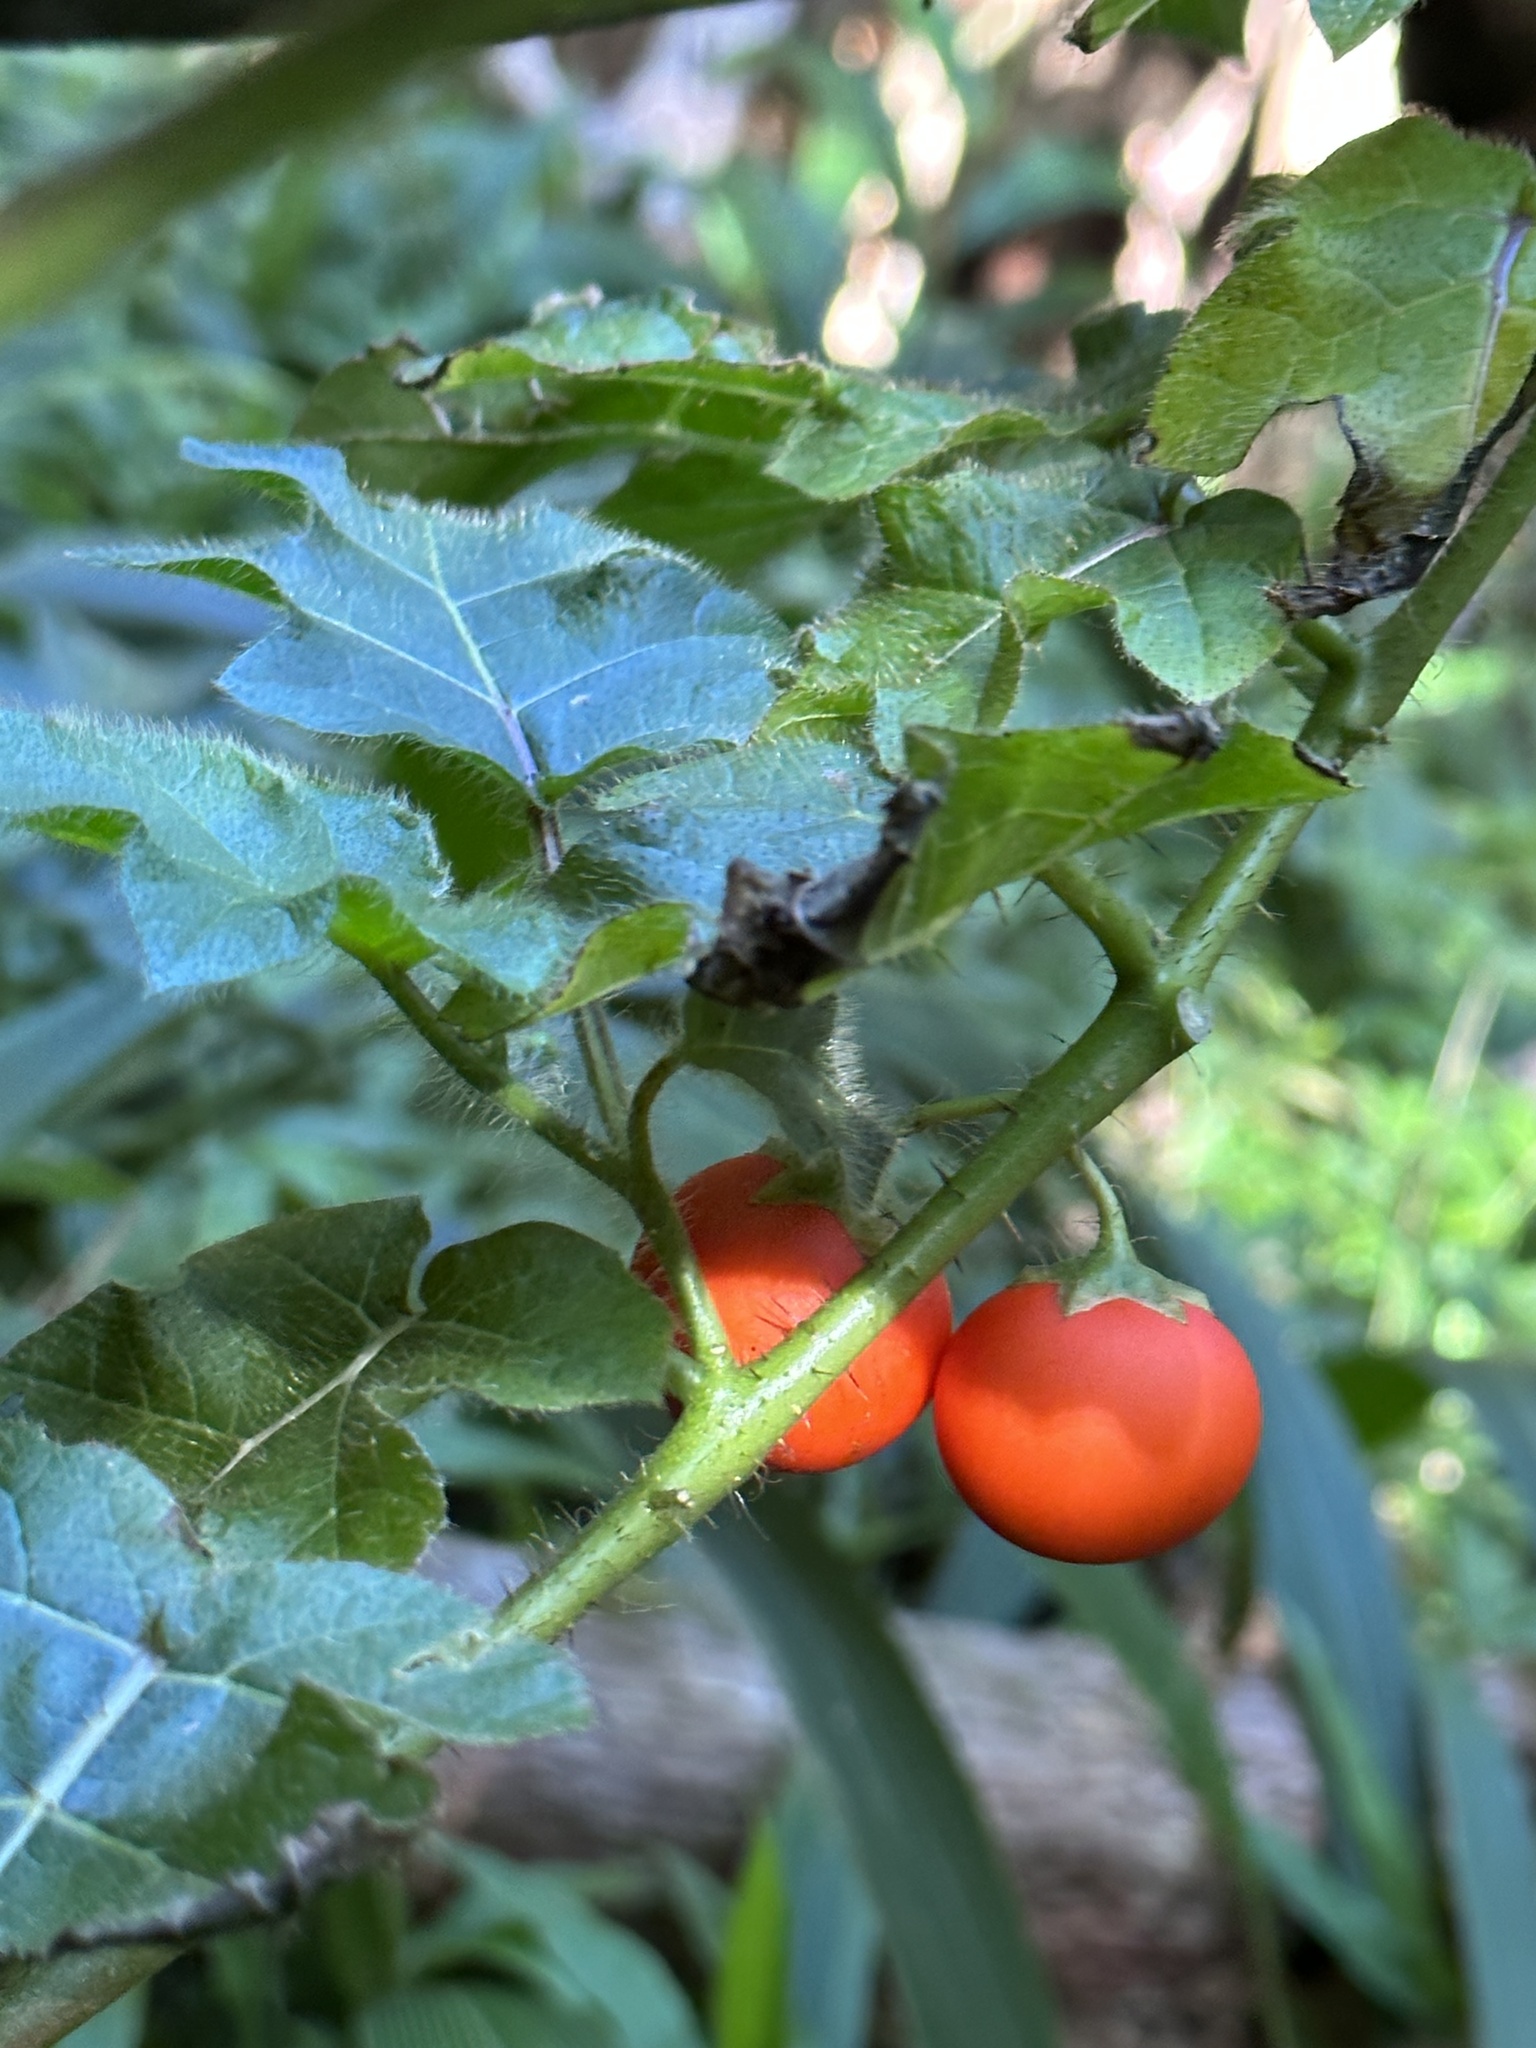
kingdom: Plantae
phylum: Tracheophyta
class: Magnoliopsida
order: Solanales
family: Solanaceae
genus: Solanum
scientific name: Solanum capsicoides
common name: Cockroach berry
